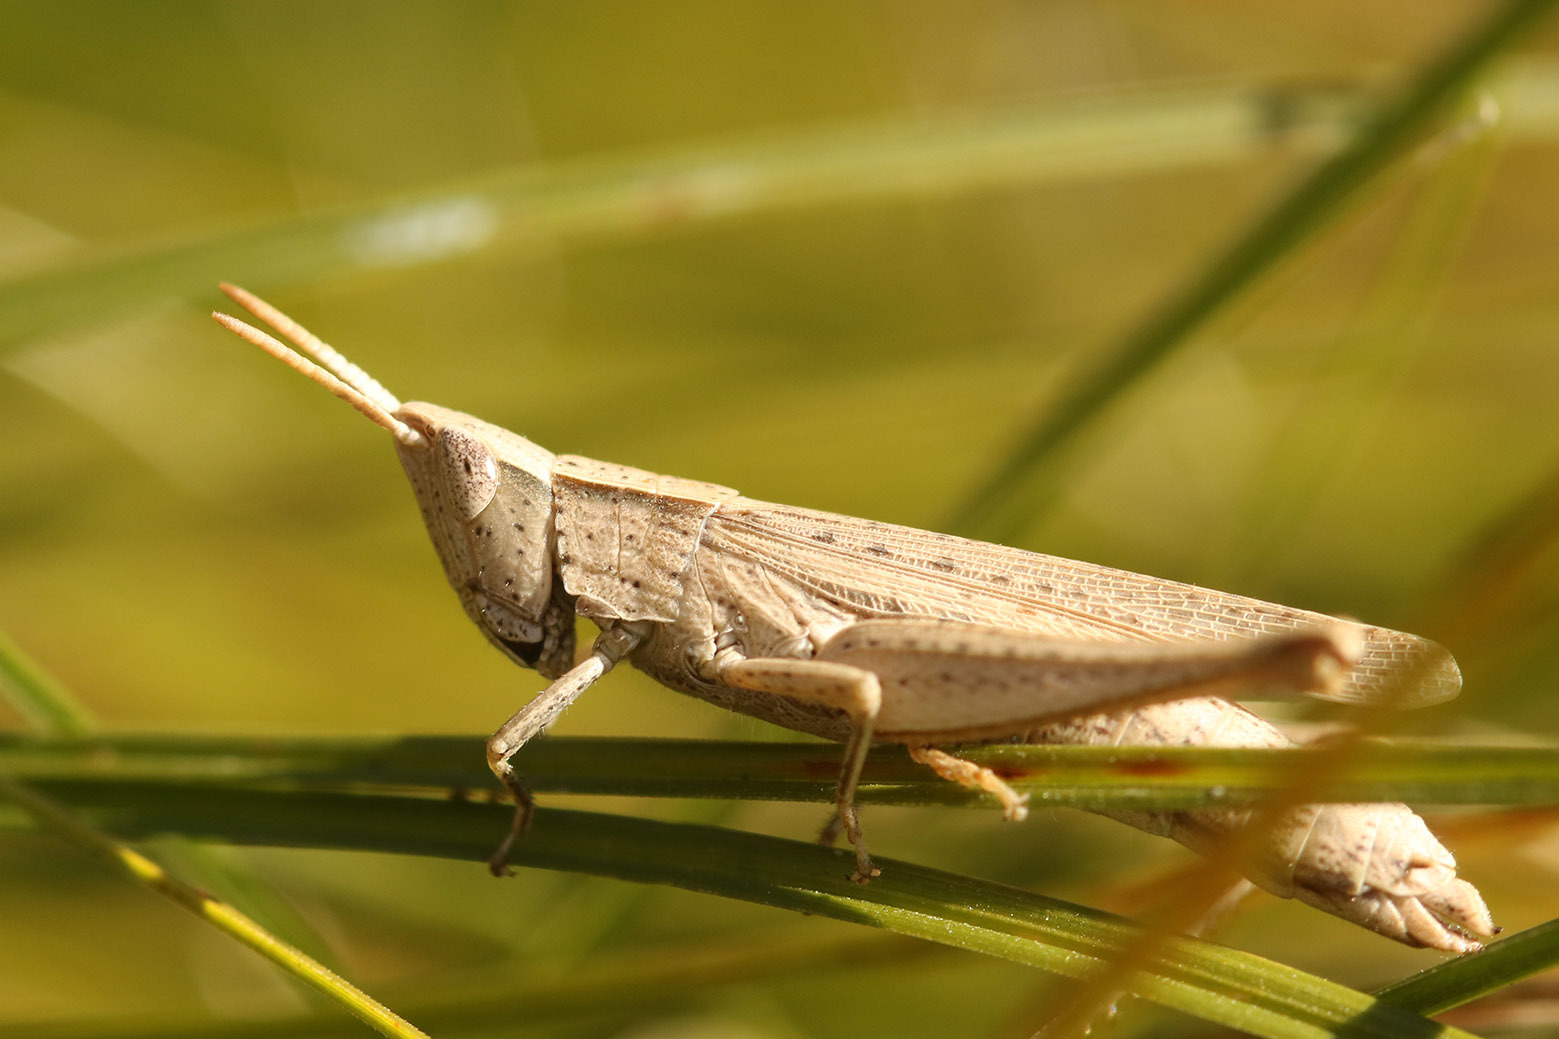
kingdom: Animalia
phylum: Arthropoda
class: Insecta
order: Orthoptera
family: Acrididae
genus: Laplatacris
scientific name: Laplatacris dispar
